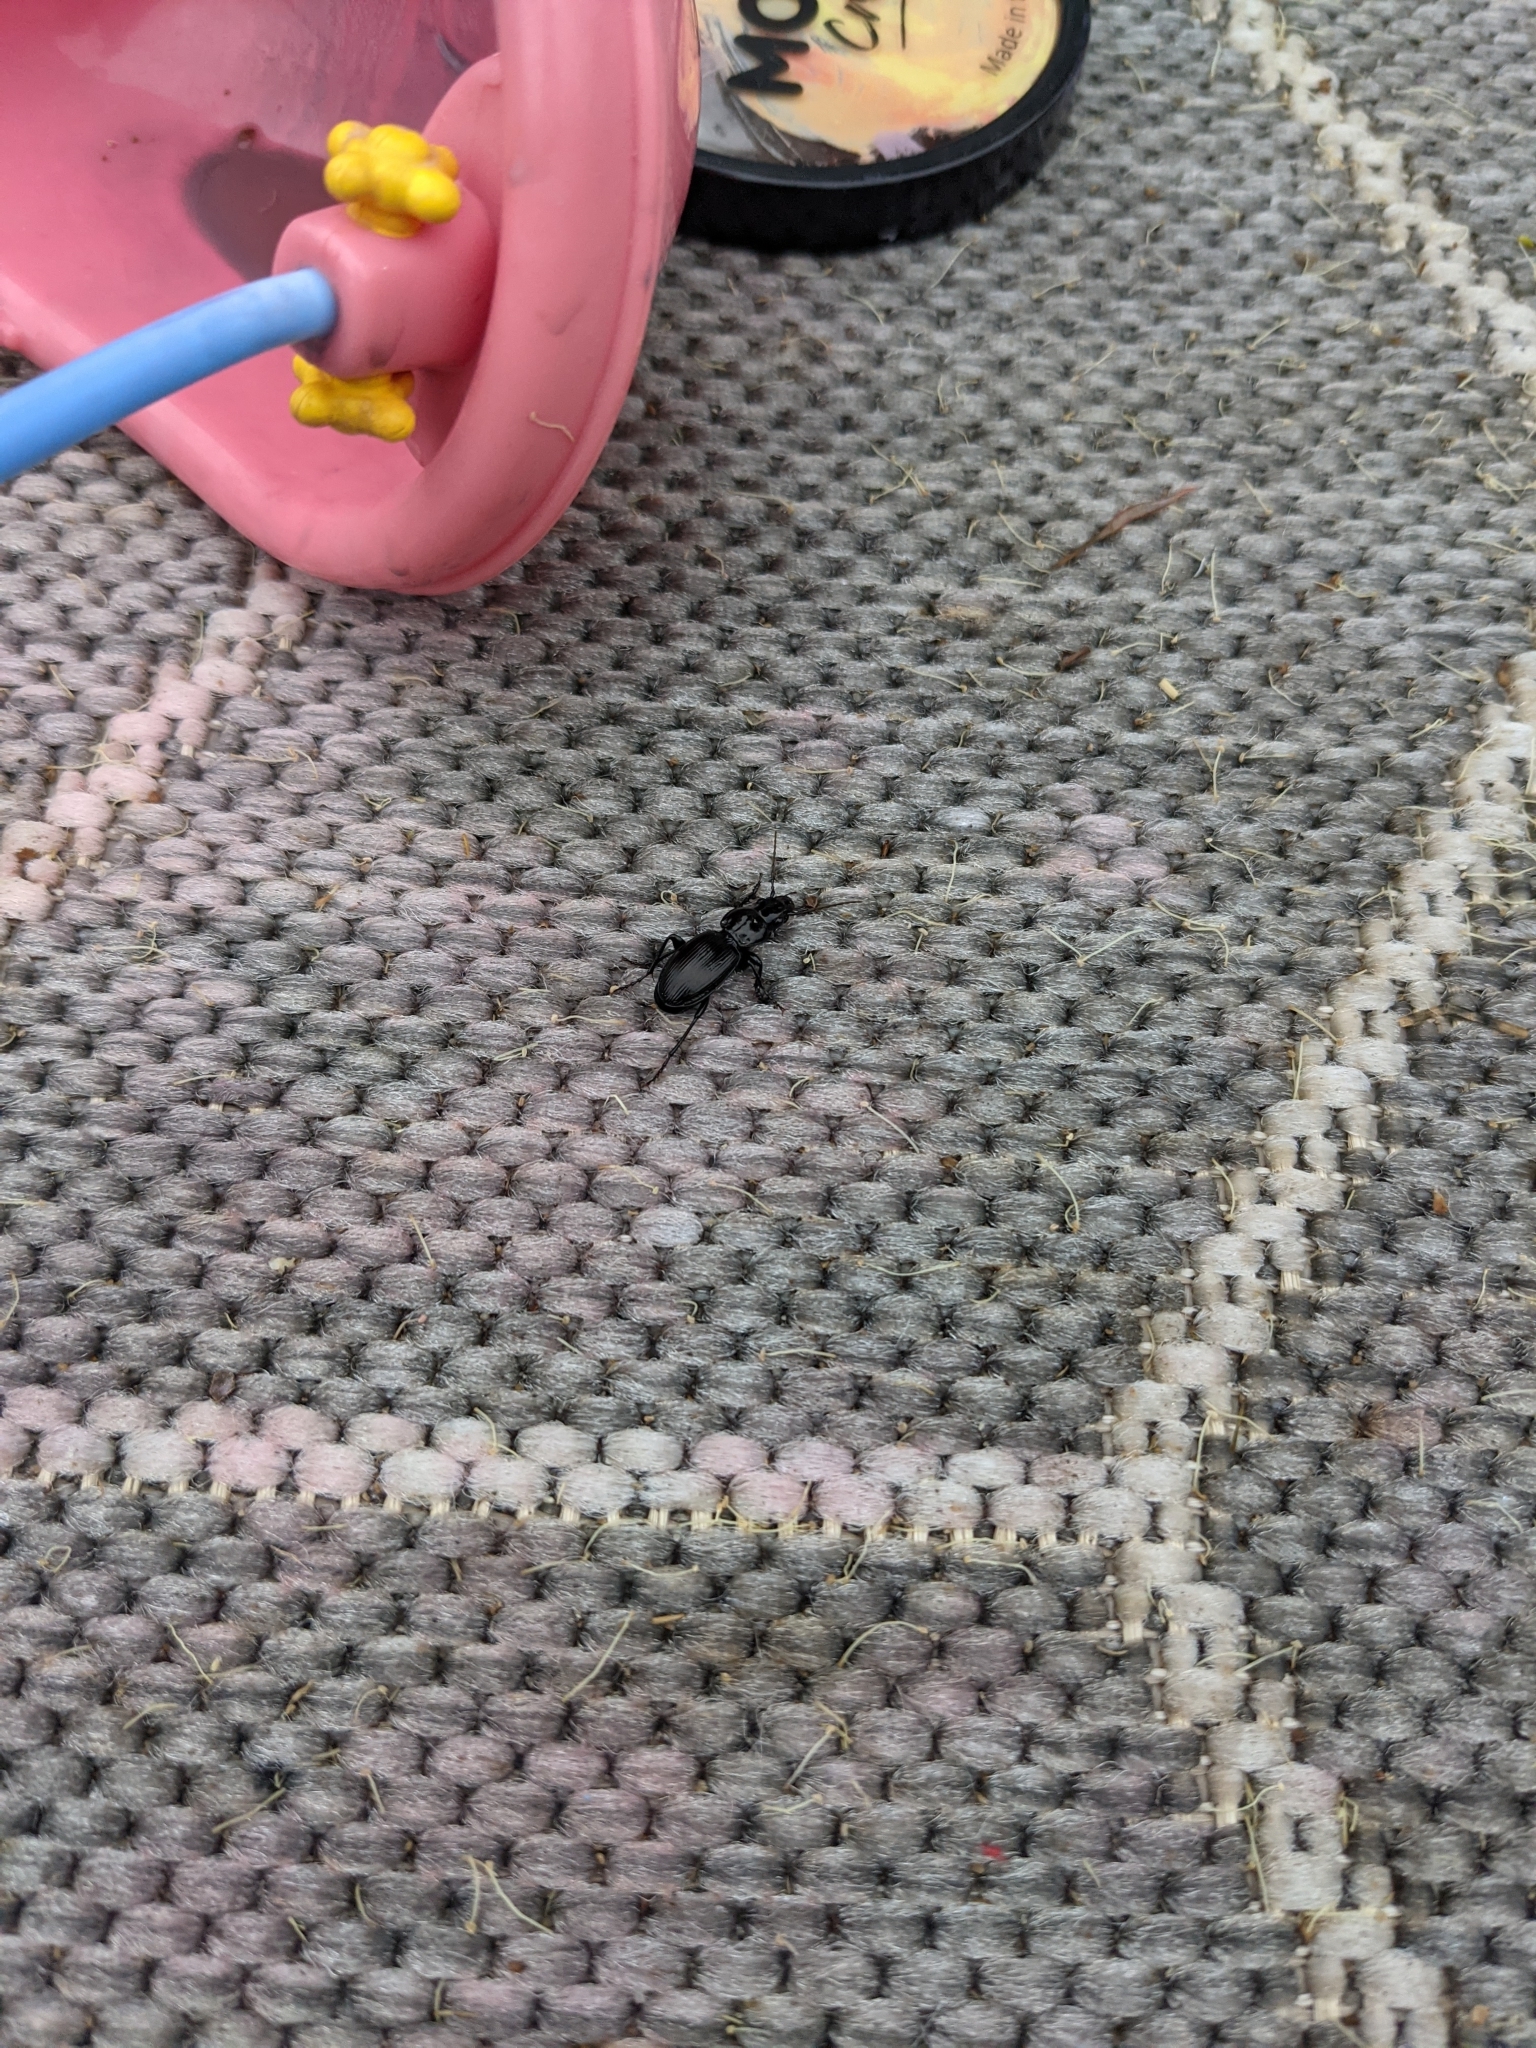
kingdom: Animalia
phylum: Arthropoda
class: Insecta
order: Coleoptera
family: Carabidae
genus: Pterostichus
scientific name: Pterostichus madidus
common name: Black clock
